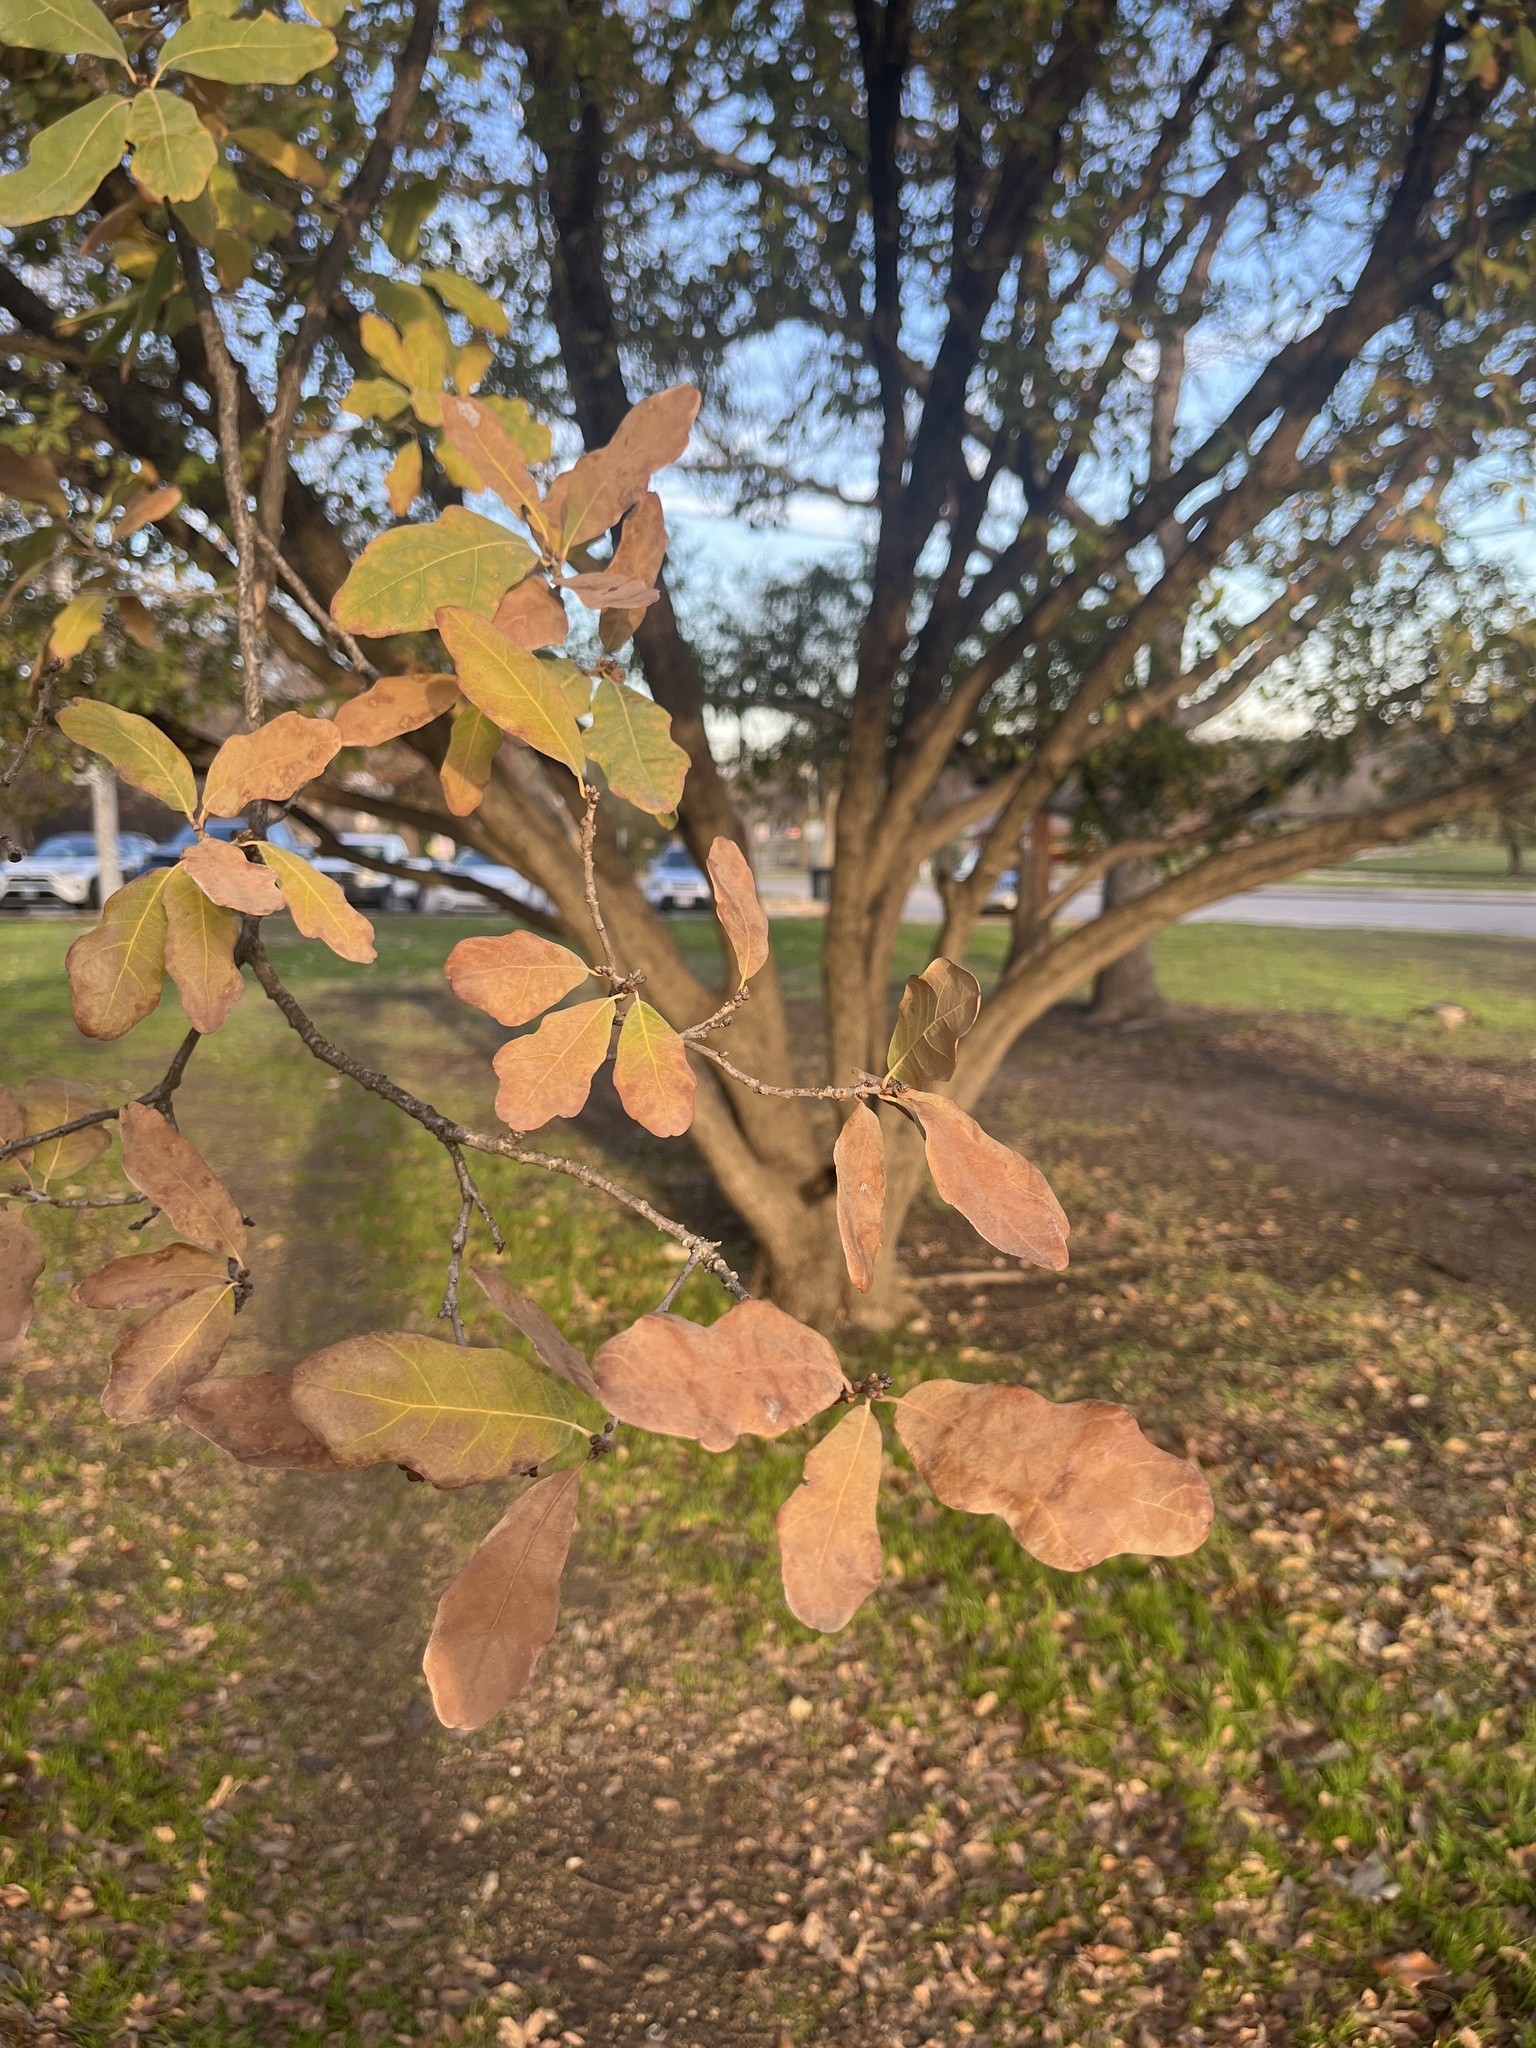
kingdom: Plantae
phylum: Tracheophyta
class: Magnoliopsida
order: Fagales
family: Fagaceae
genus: Quercus
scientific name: Quercus laceyi
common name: Lacey oak
